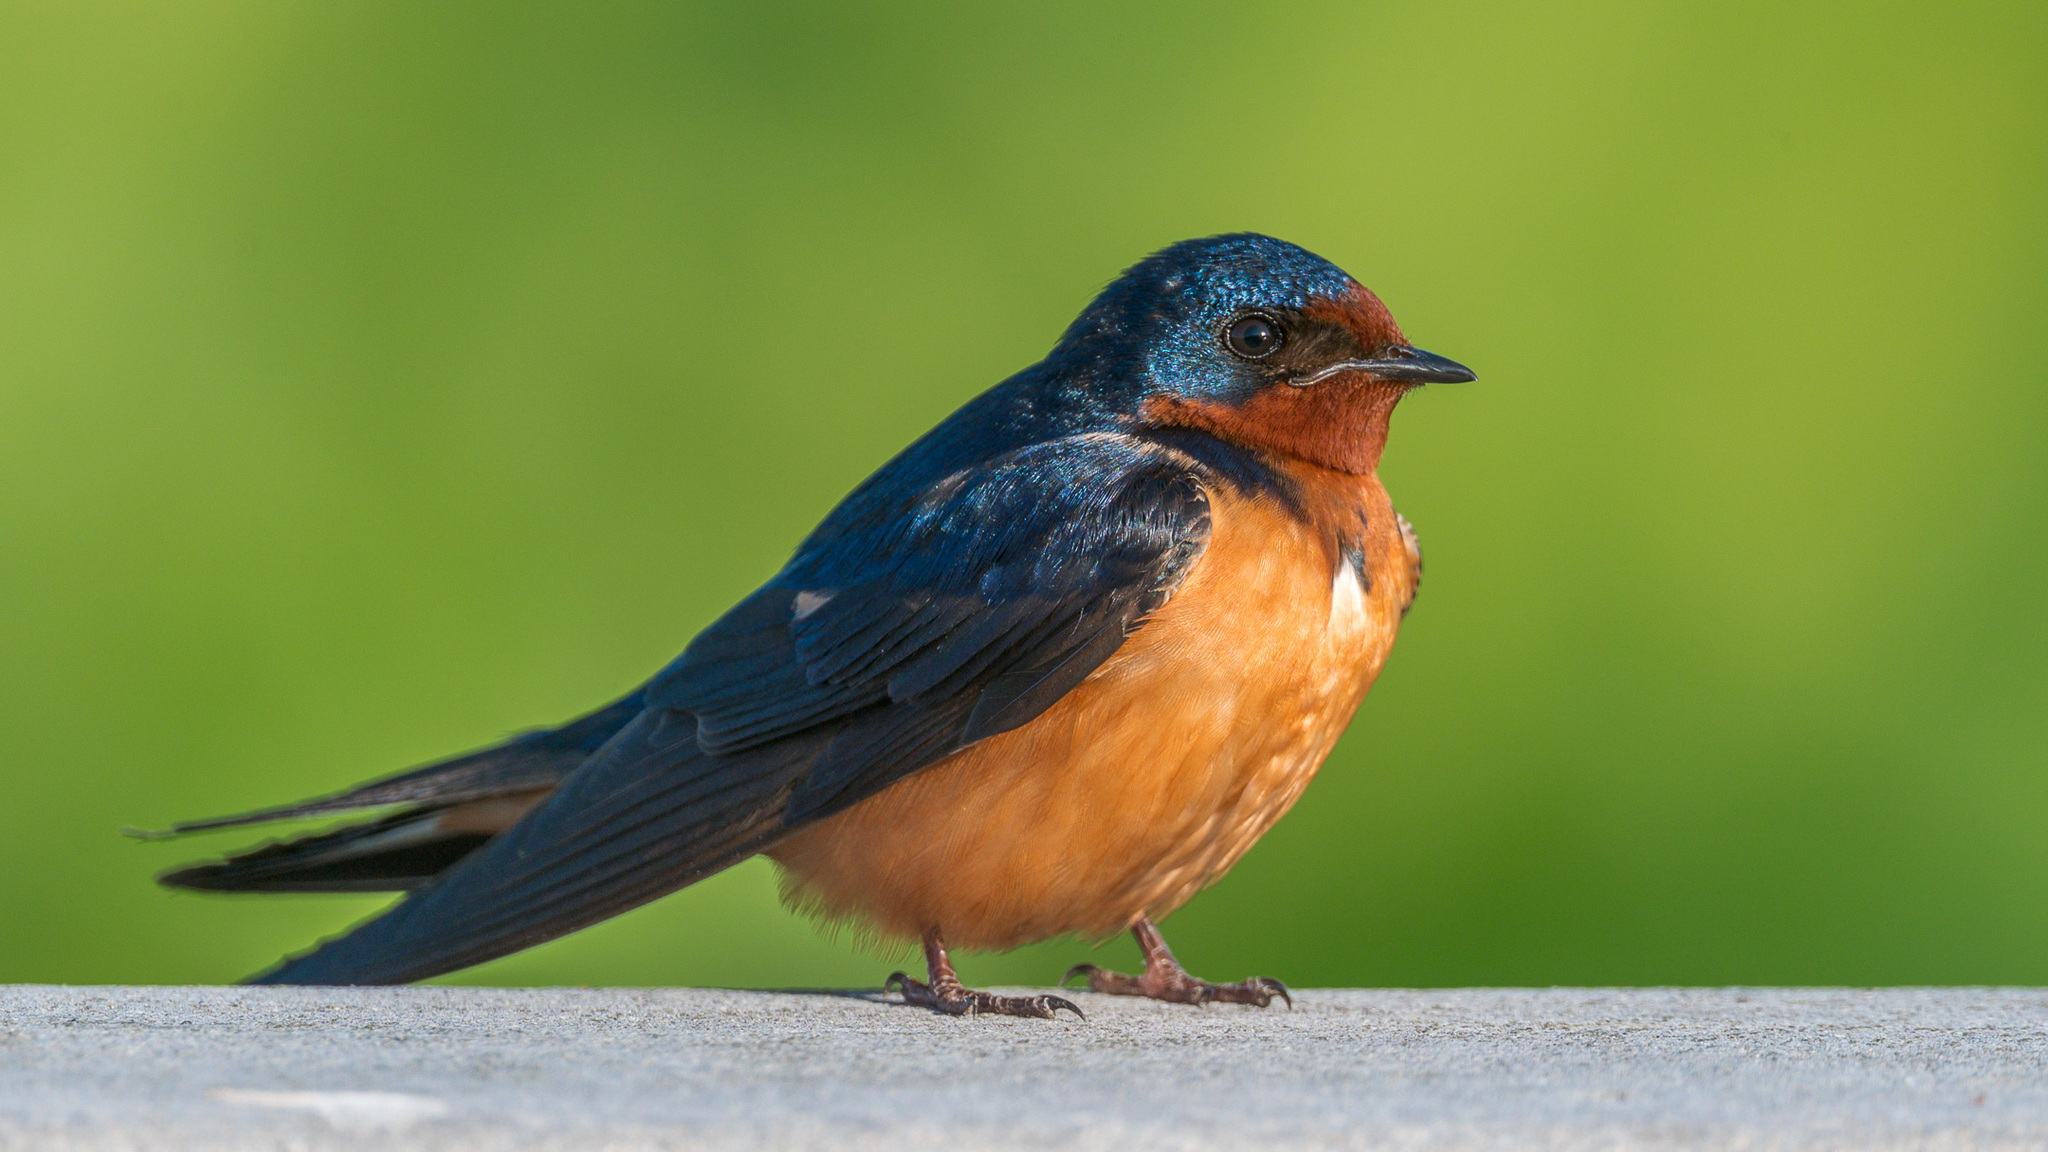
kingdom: Animalia
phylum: Chordata
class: Aves
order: Passeriformes
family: Hirundinidae
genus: Hirundo
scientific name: Hirundo rustica
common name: Barn swallow
